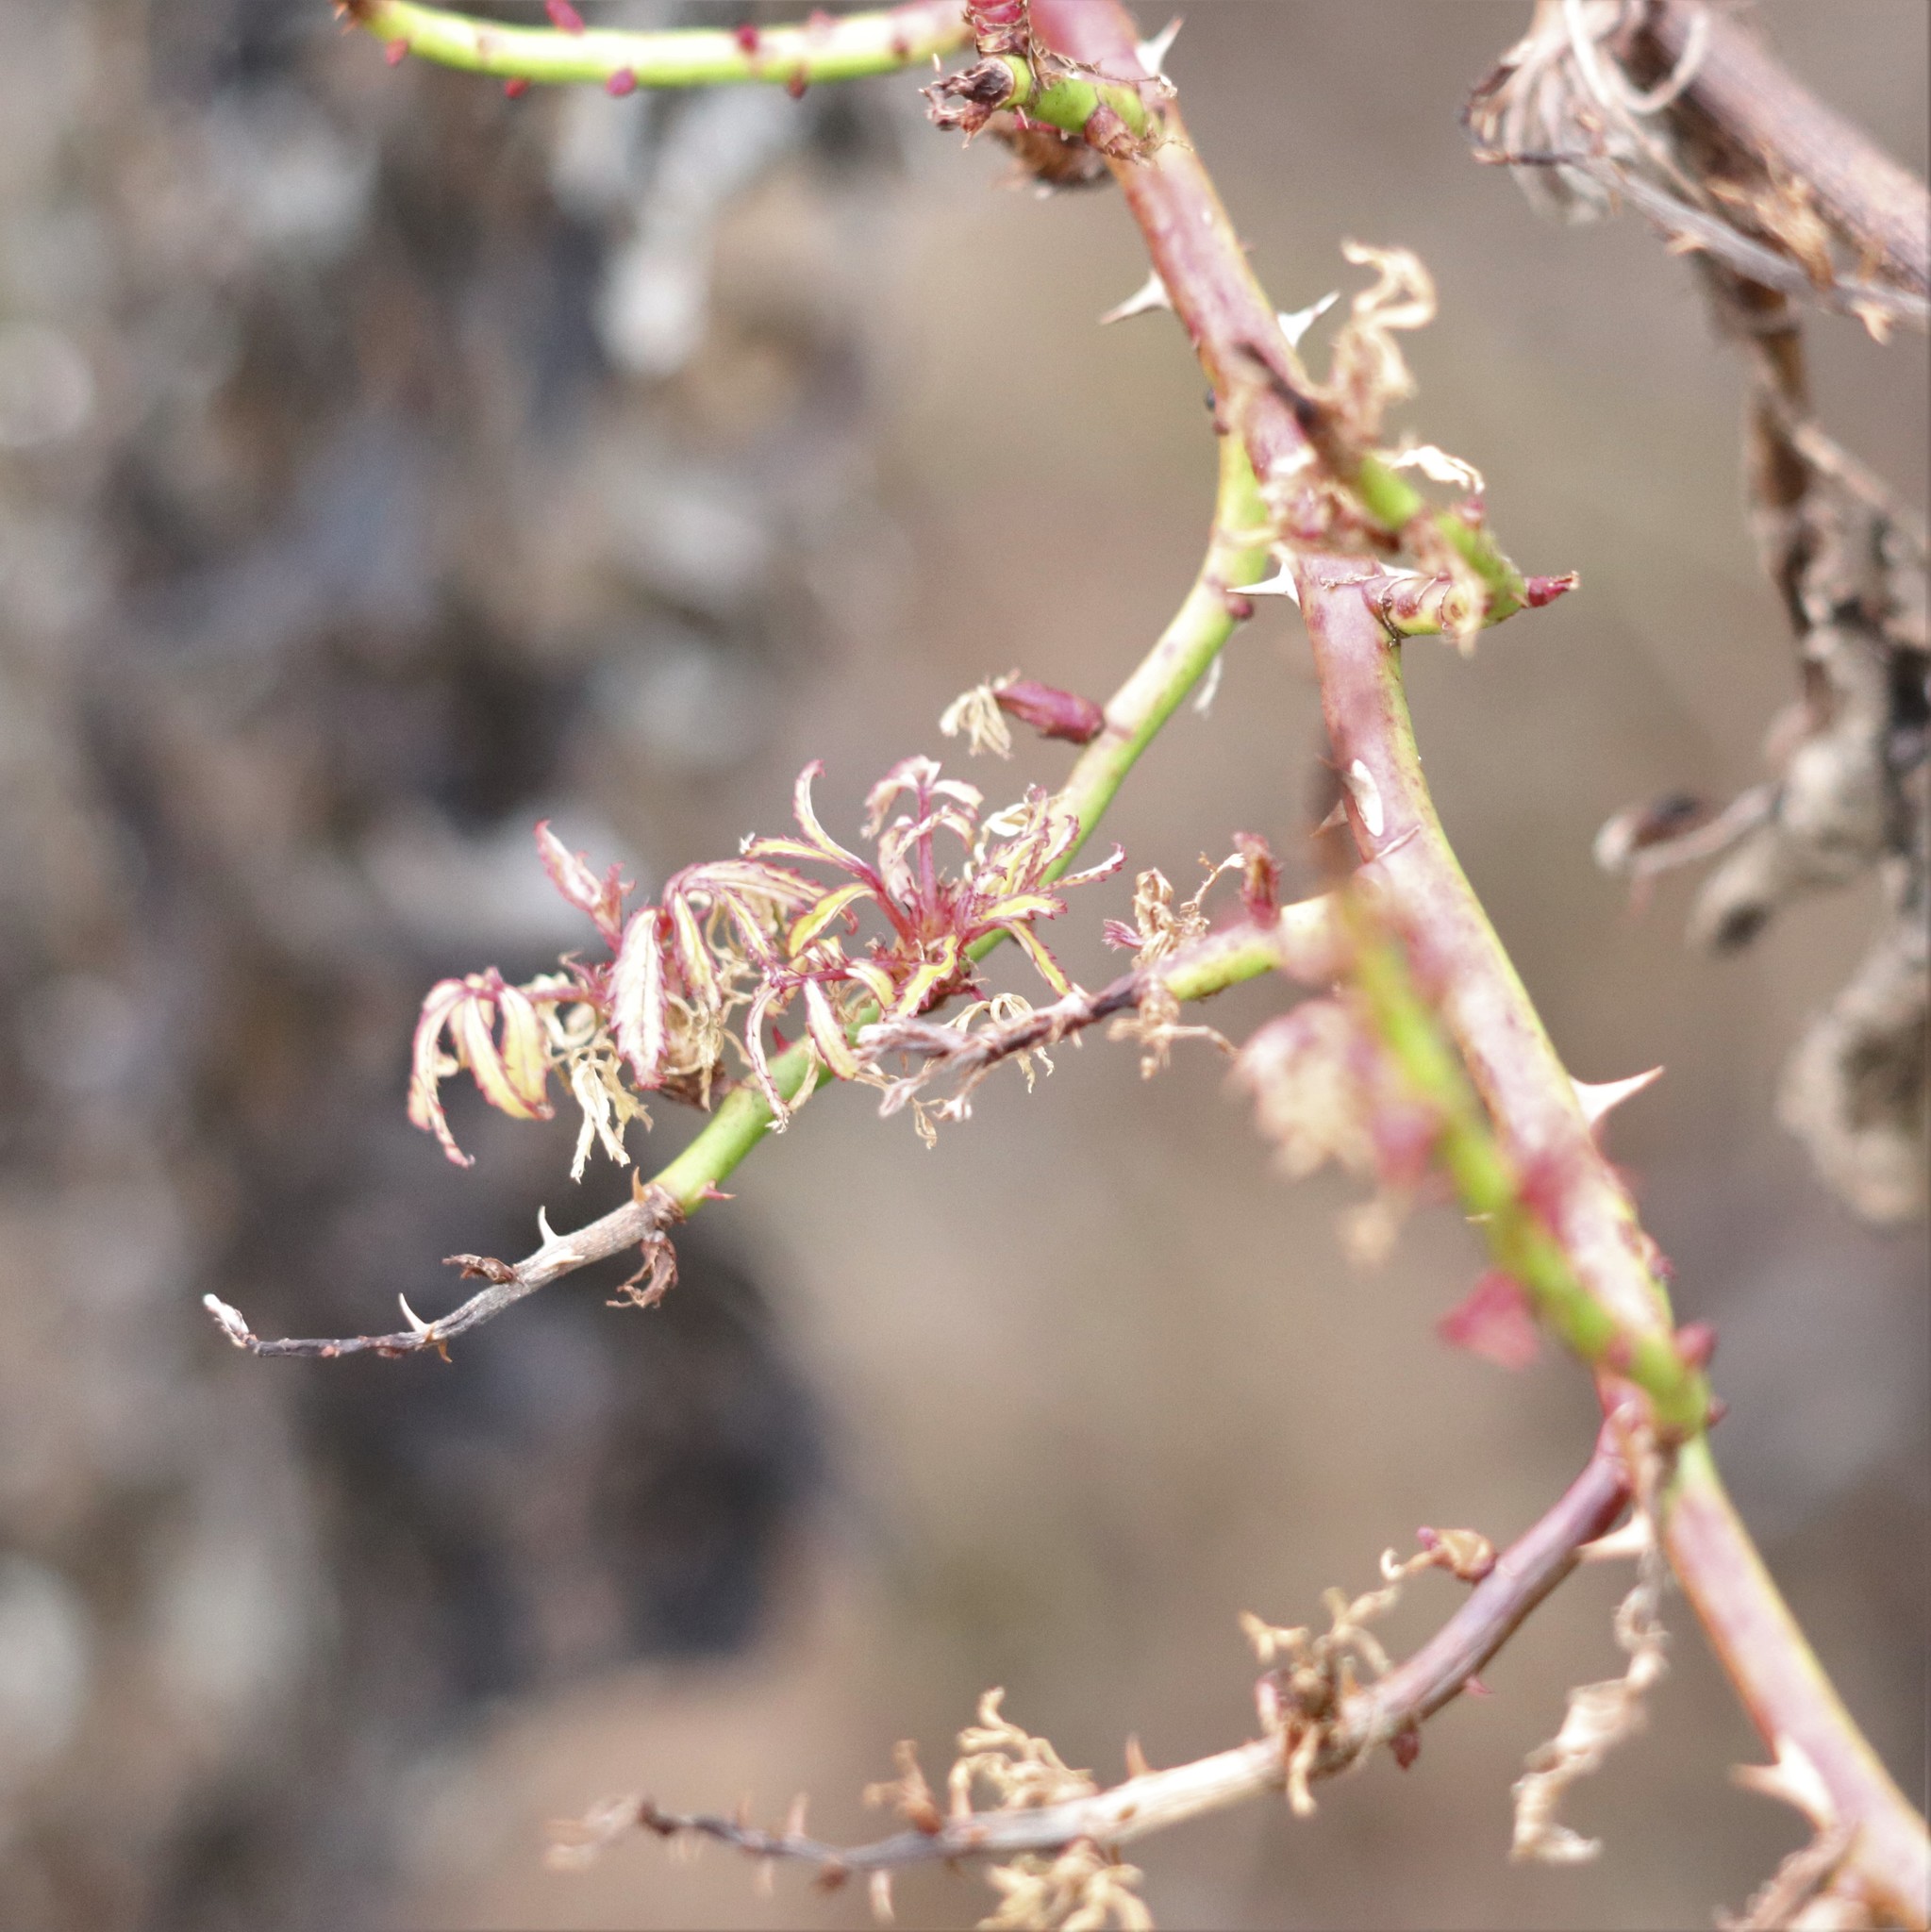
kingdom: Viruses
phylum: Negarnaviricota
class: Ellioviricetes
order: Bunyavirales
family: Fimoviridae
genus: Emaravirus
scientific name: Emaravirus rosae
